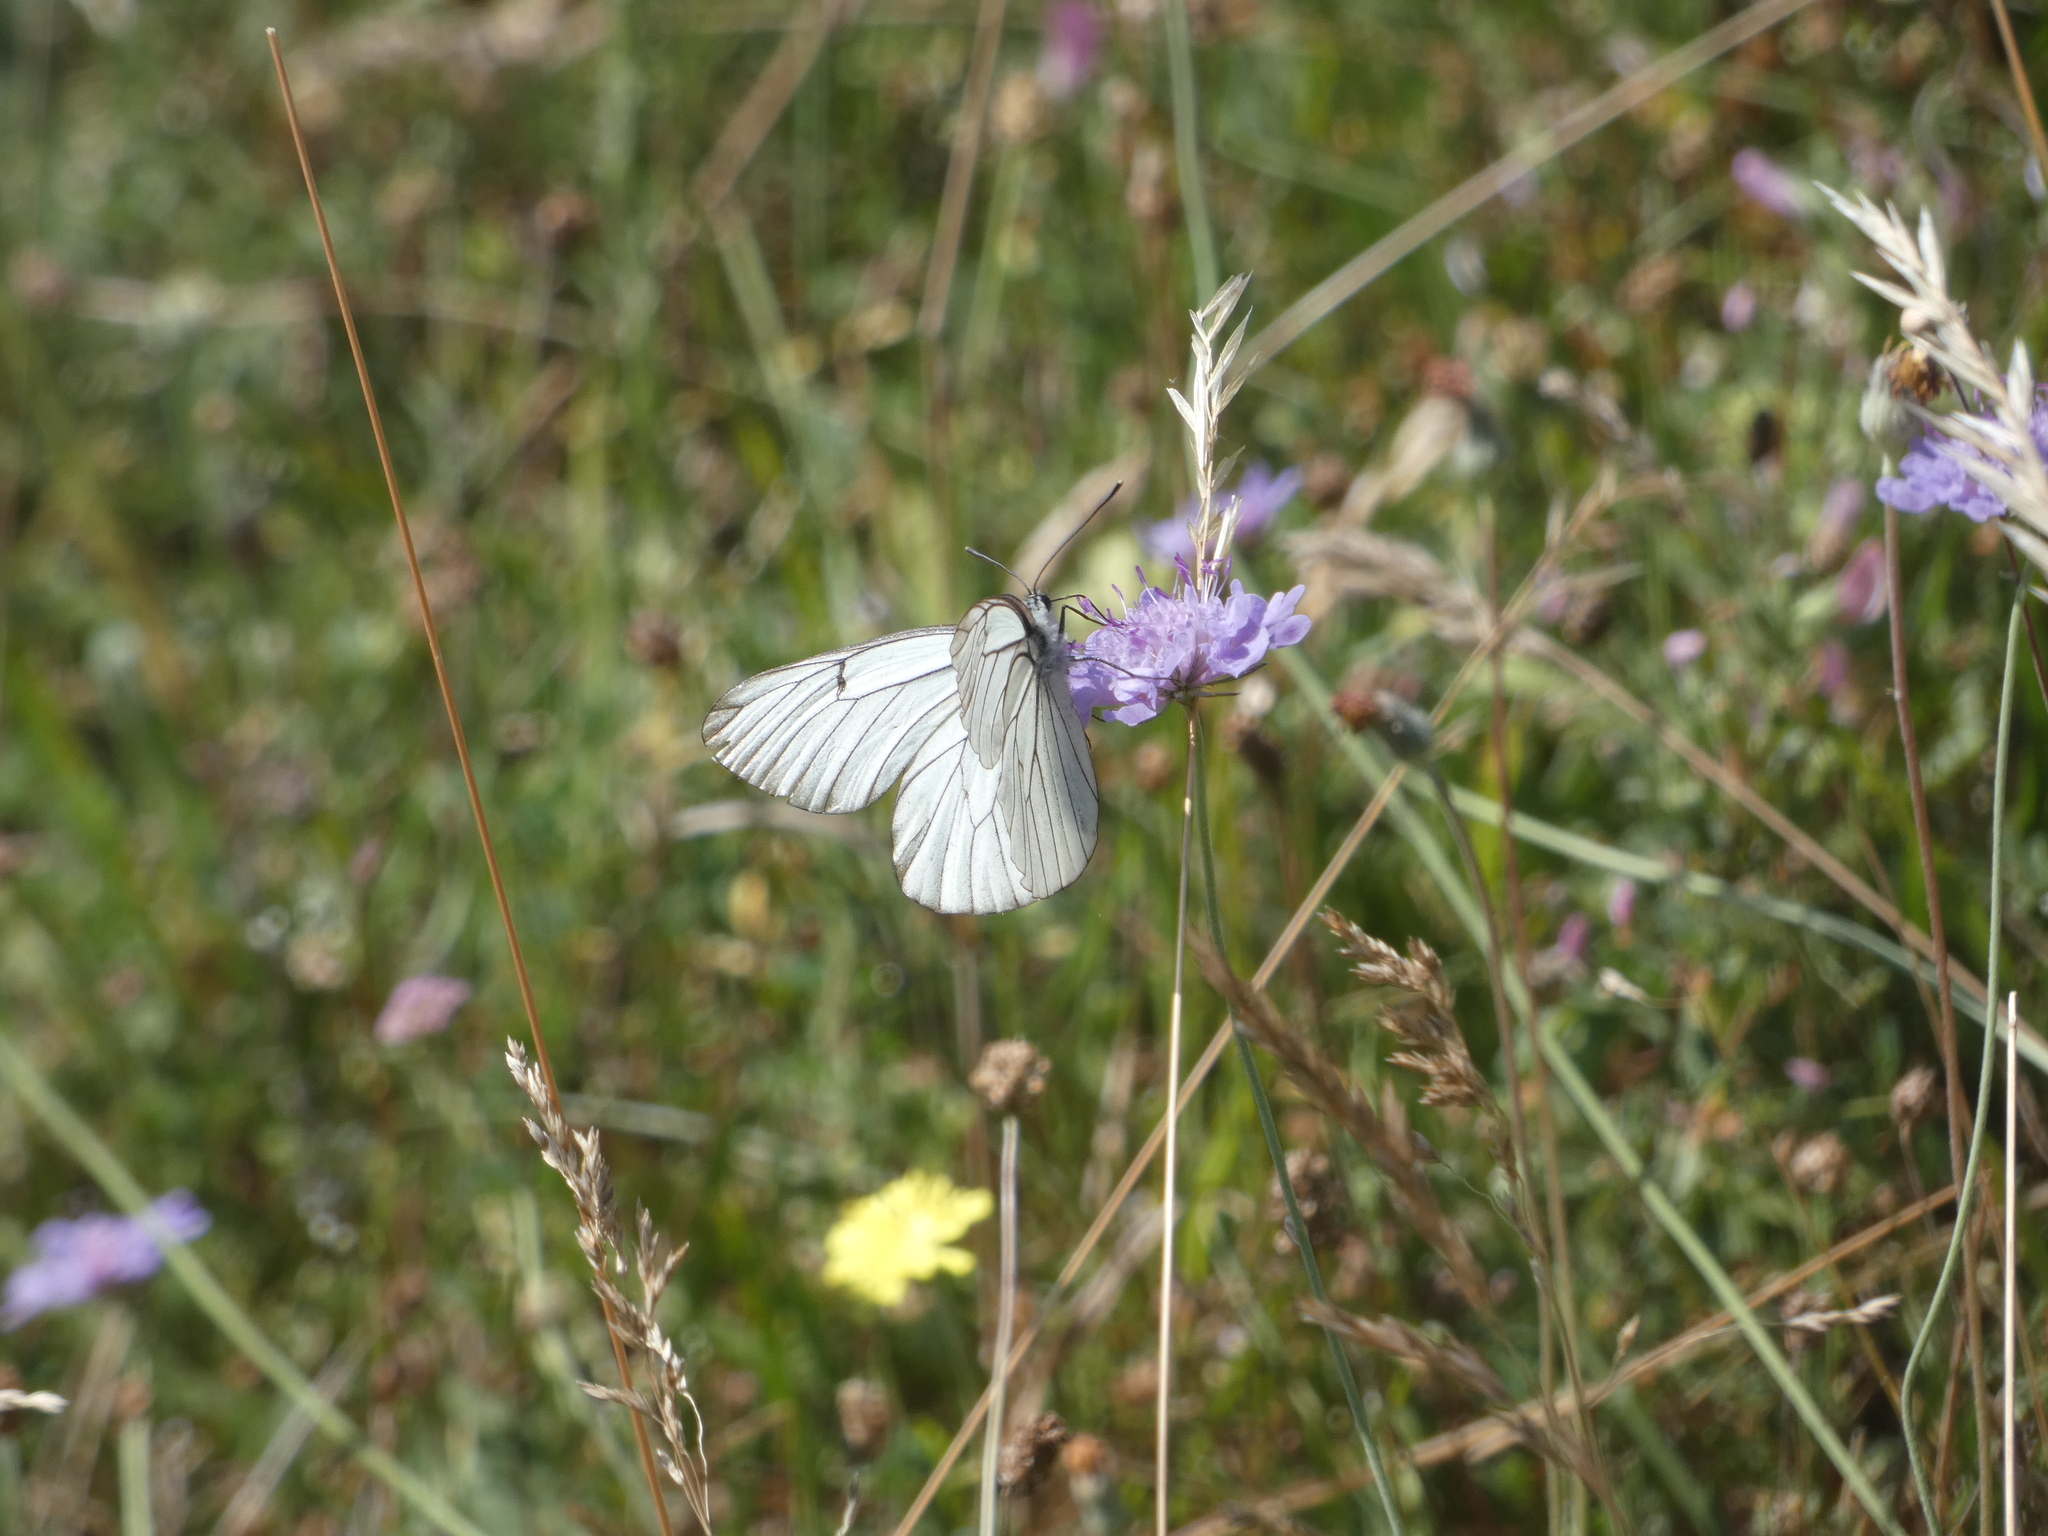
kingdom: Animalia
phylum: Arthropoda
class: Insecta
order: Lepidoptera
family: Pieridae
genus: Aporia
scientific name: Aporia crataegi
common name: Black-veined white
